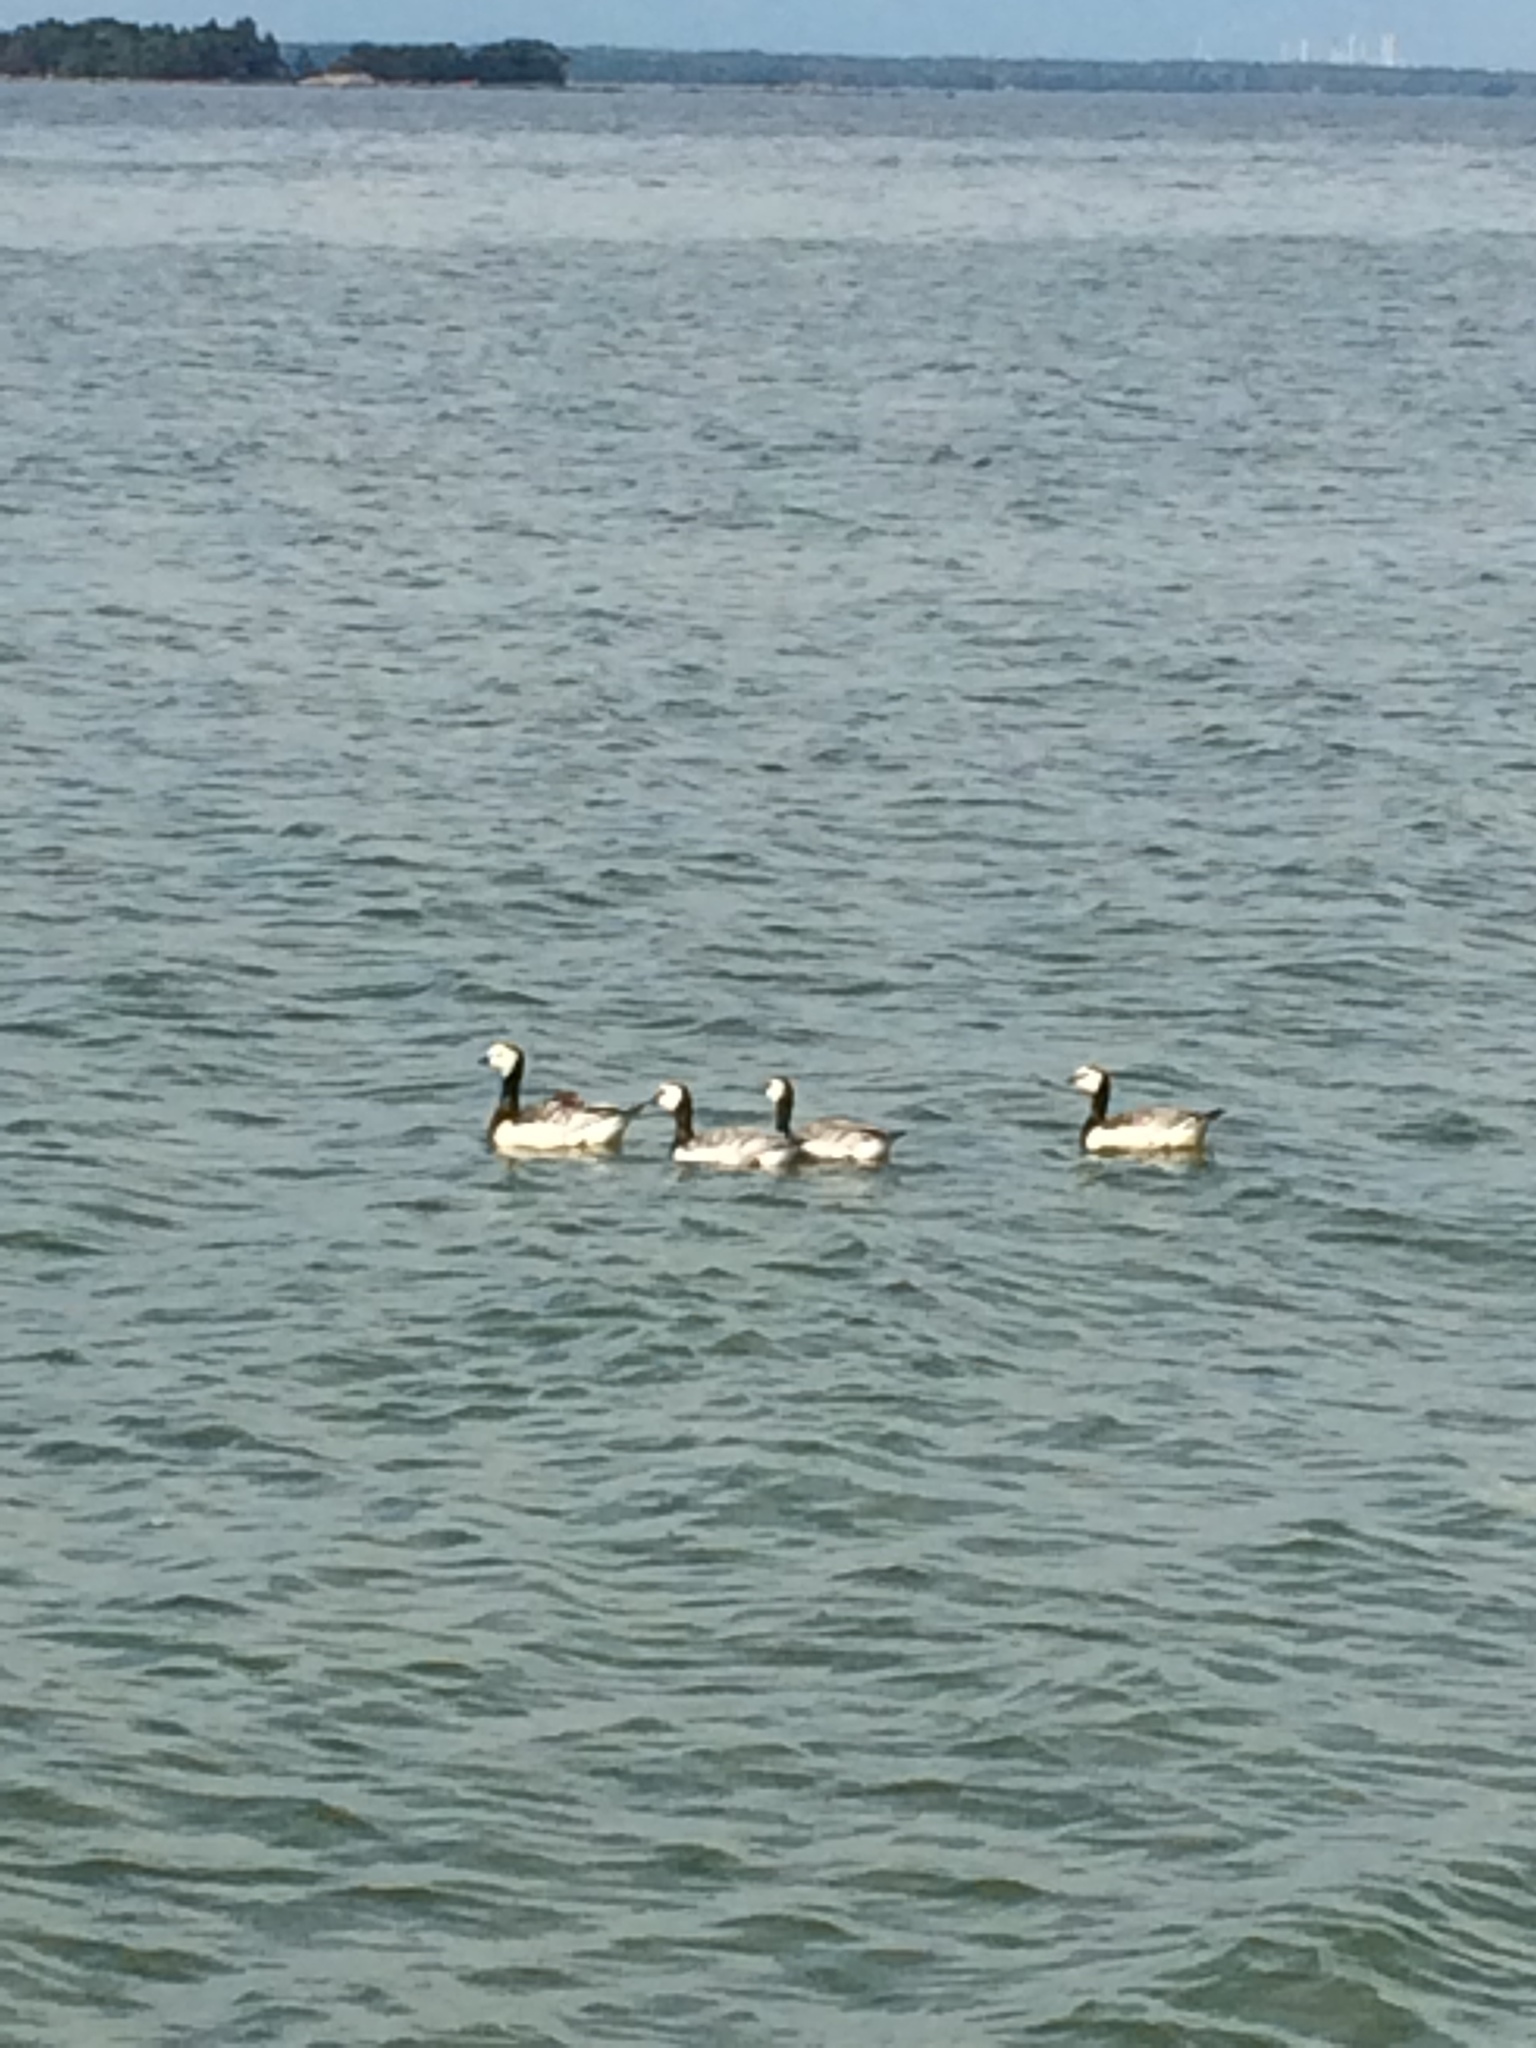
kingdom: Animalia
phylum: Chordata
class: Aves
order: Anseriformes
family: Anatidae
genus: Branta
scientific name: Branta leucopsis
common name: Barnacle goose
